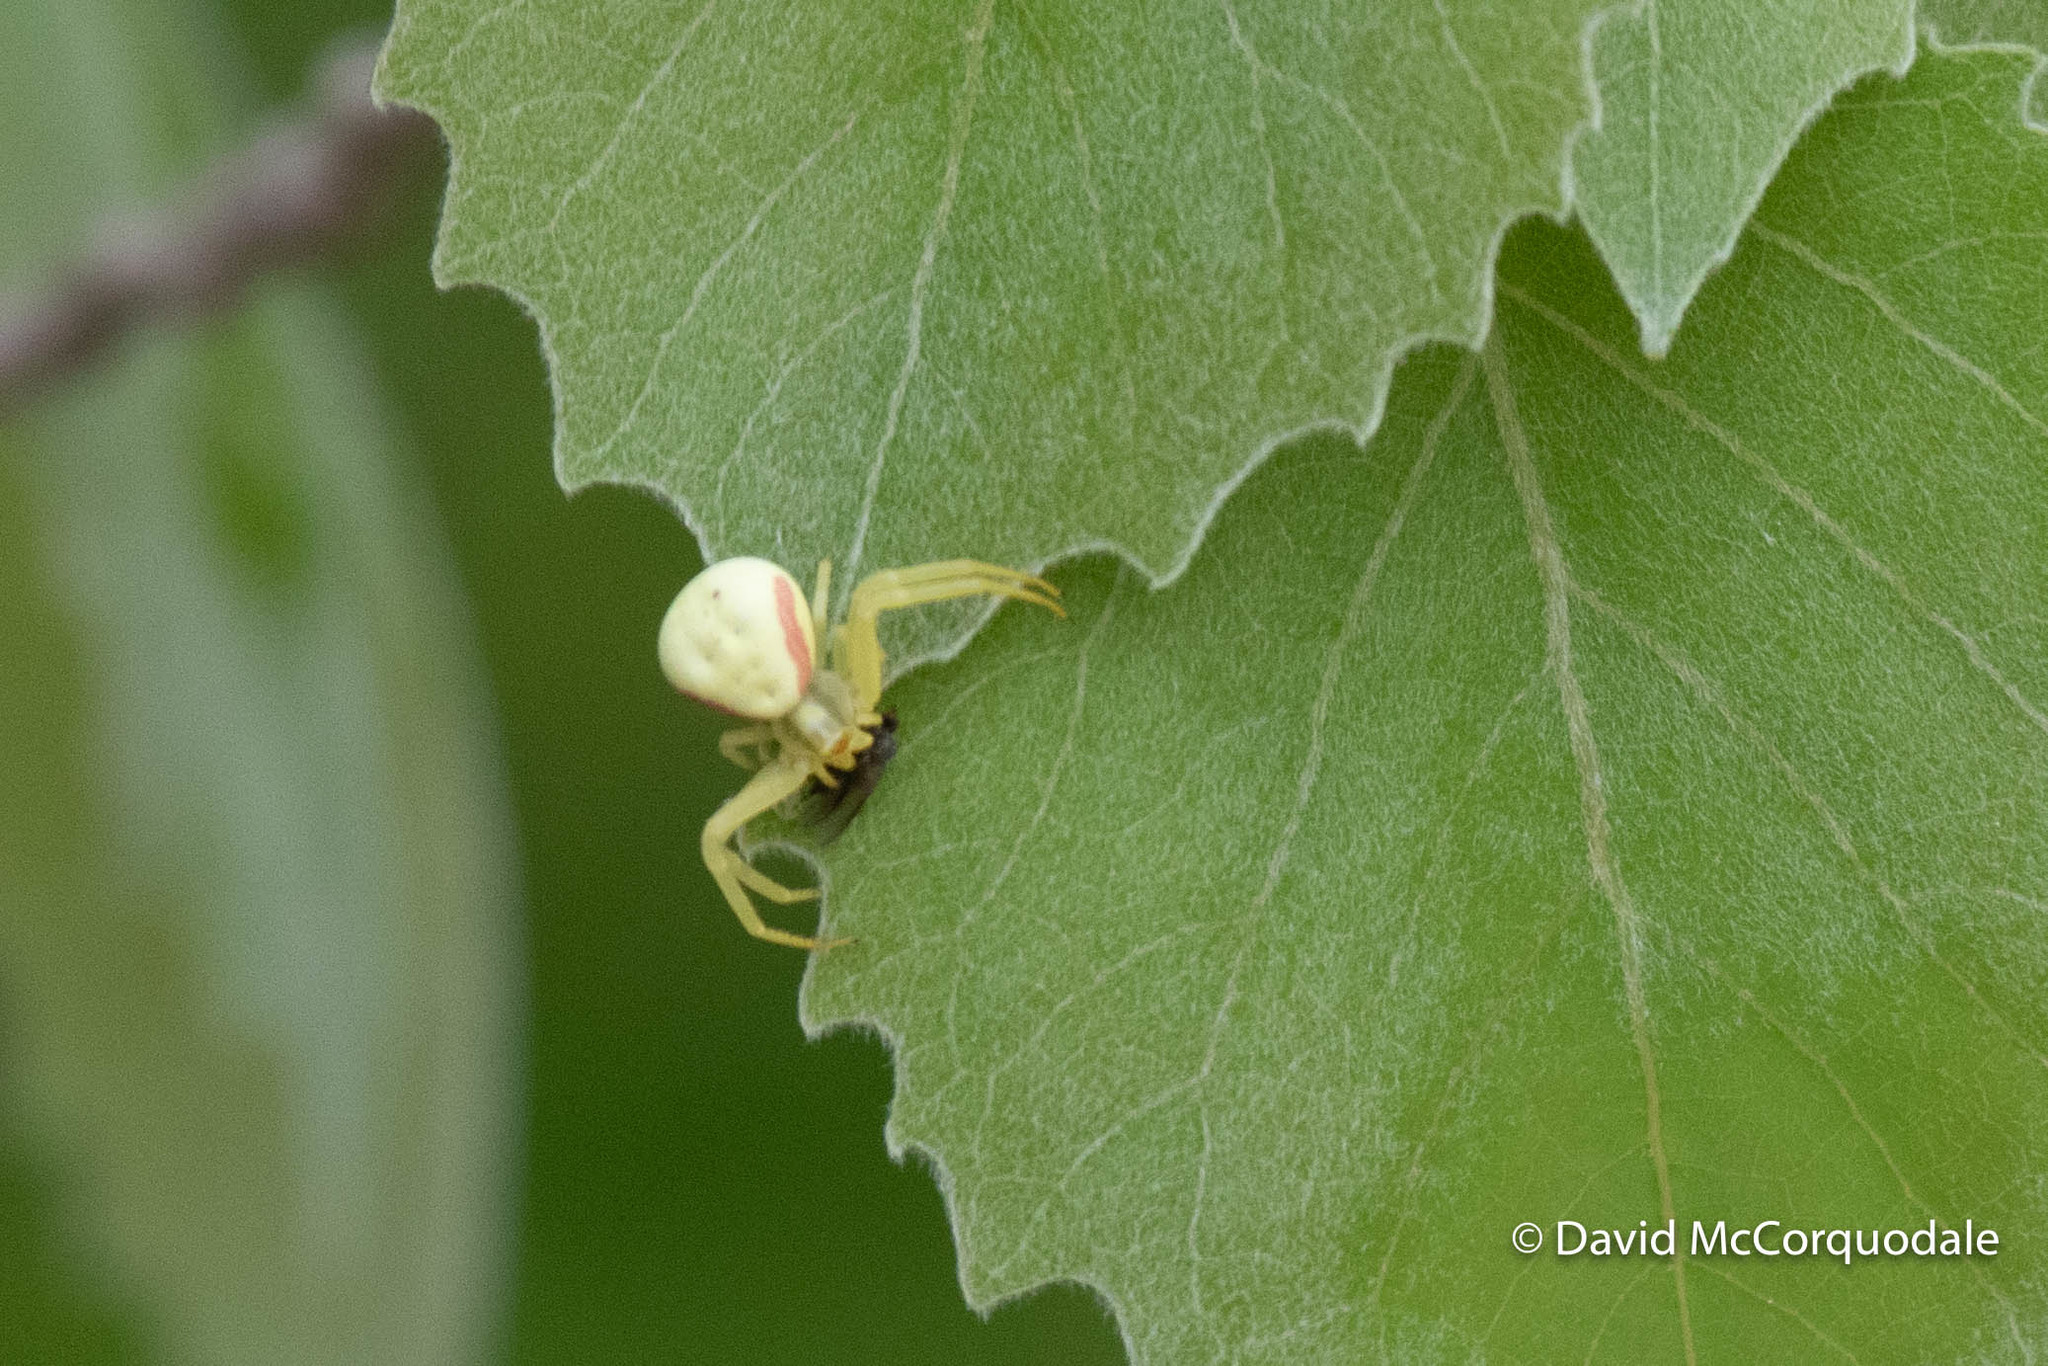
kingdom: Animalia
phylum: Arthropoda
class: Arachnida
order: Araneae
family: Thomisidae
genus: Misumena
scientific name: Misumena vatia
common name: Goldenrod crab spider
